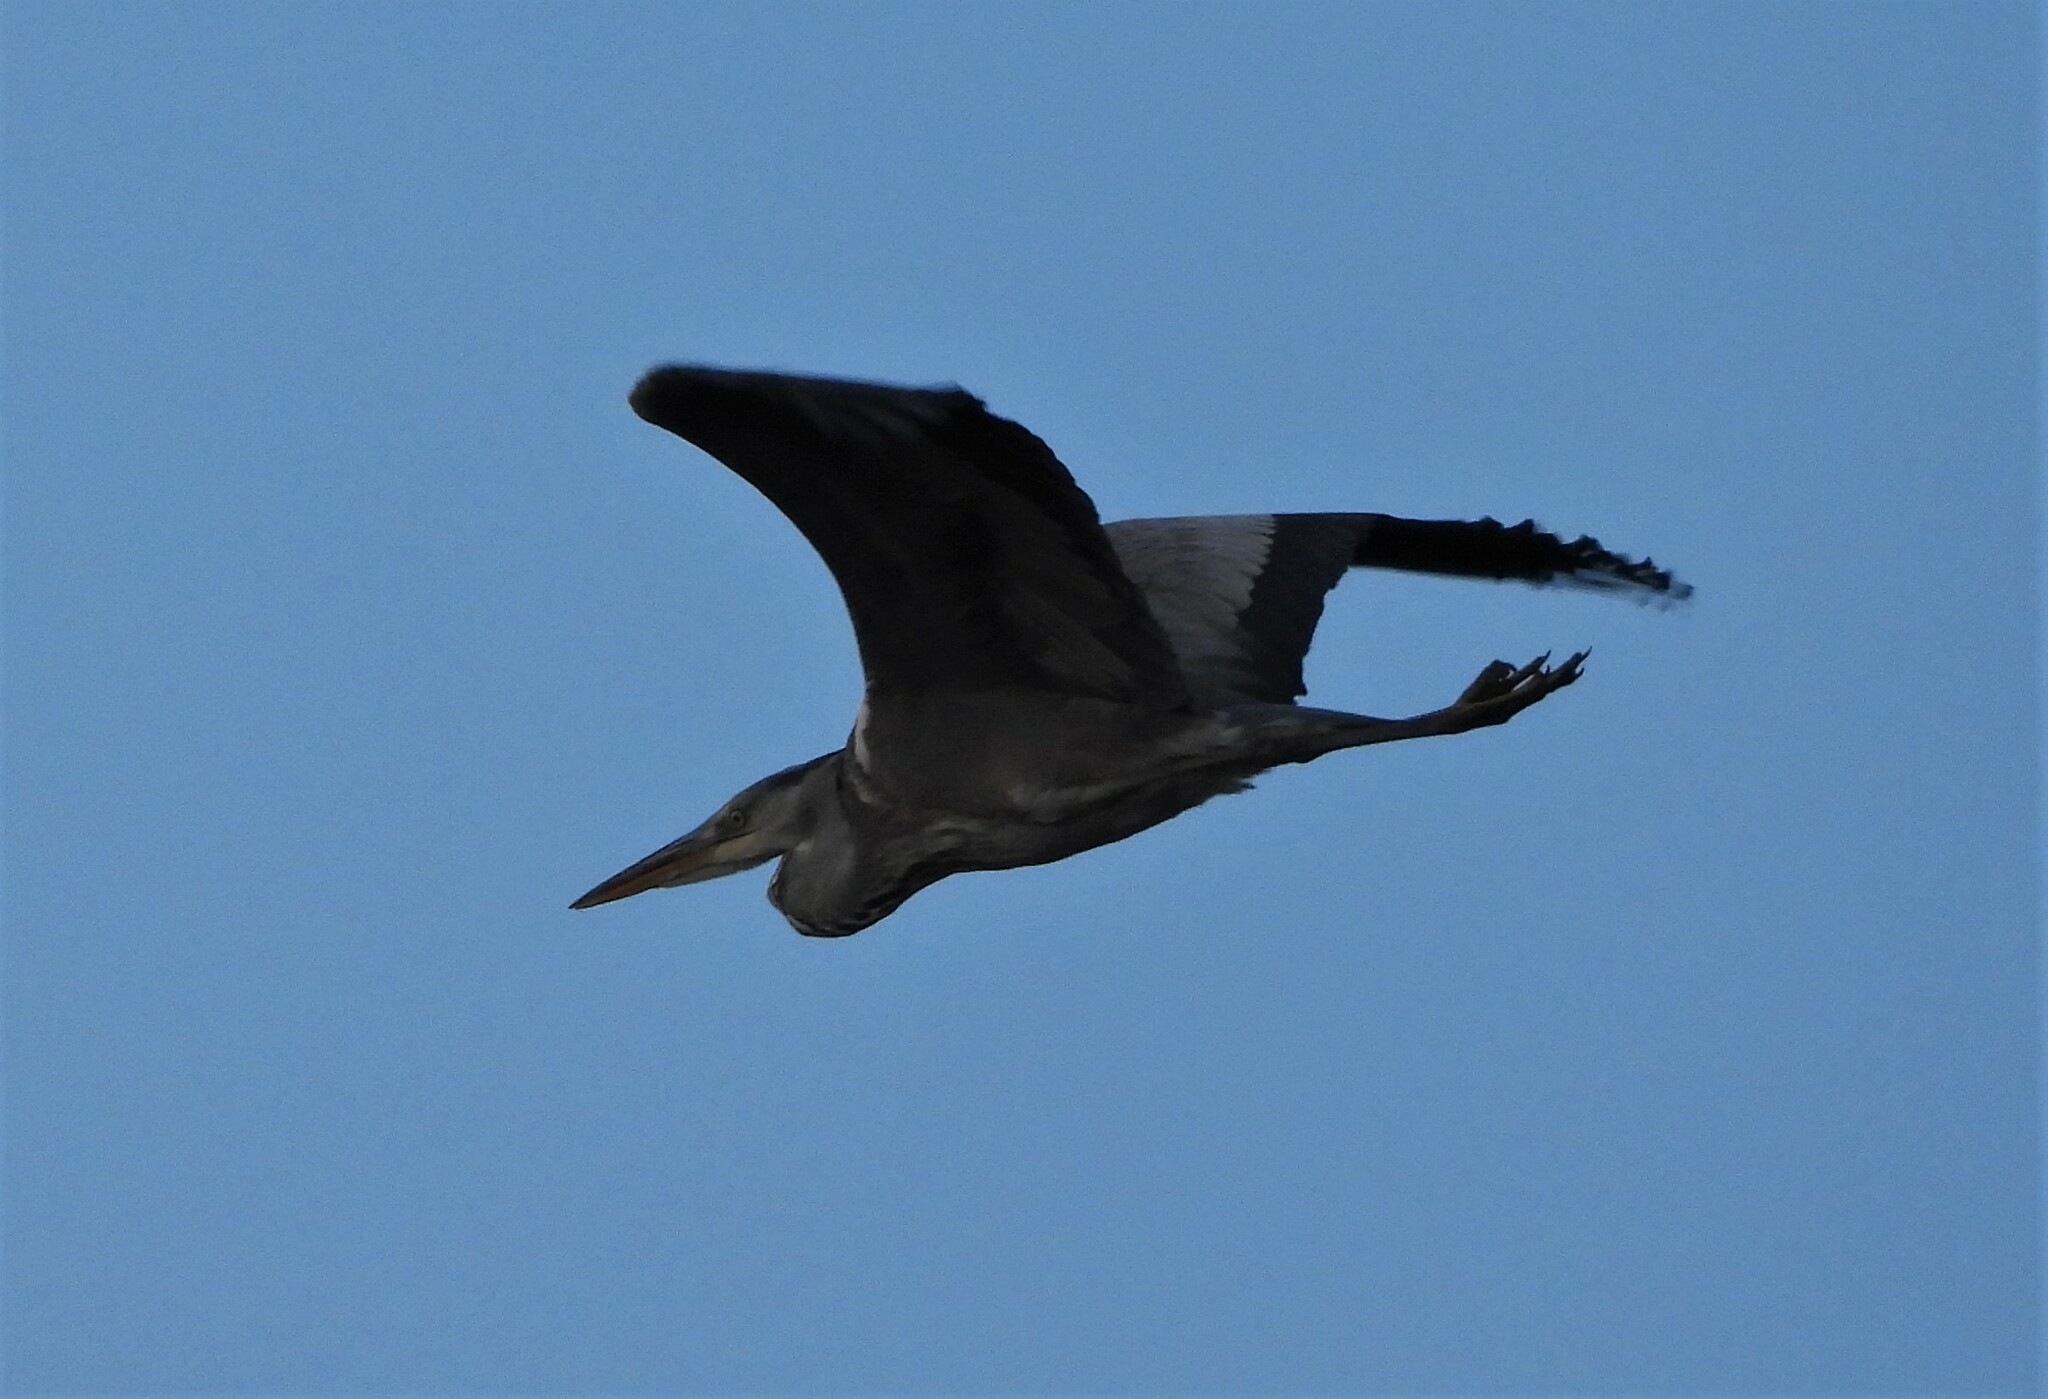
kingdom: Animalia
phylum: Chordata
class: Aves
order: Pelecaniformes
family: Ardeidae
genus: Ardea
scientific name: Ardea cinerea
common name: Grey heron
